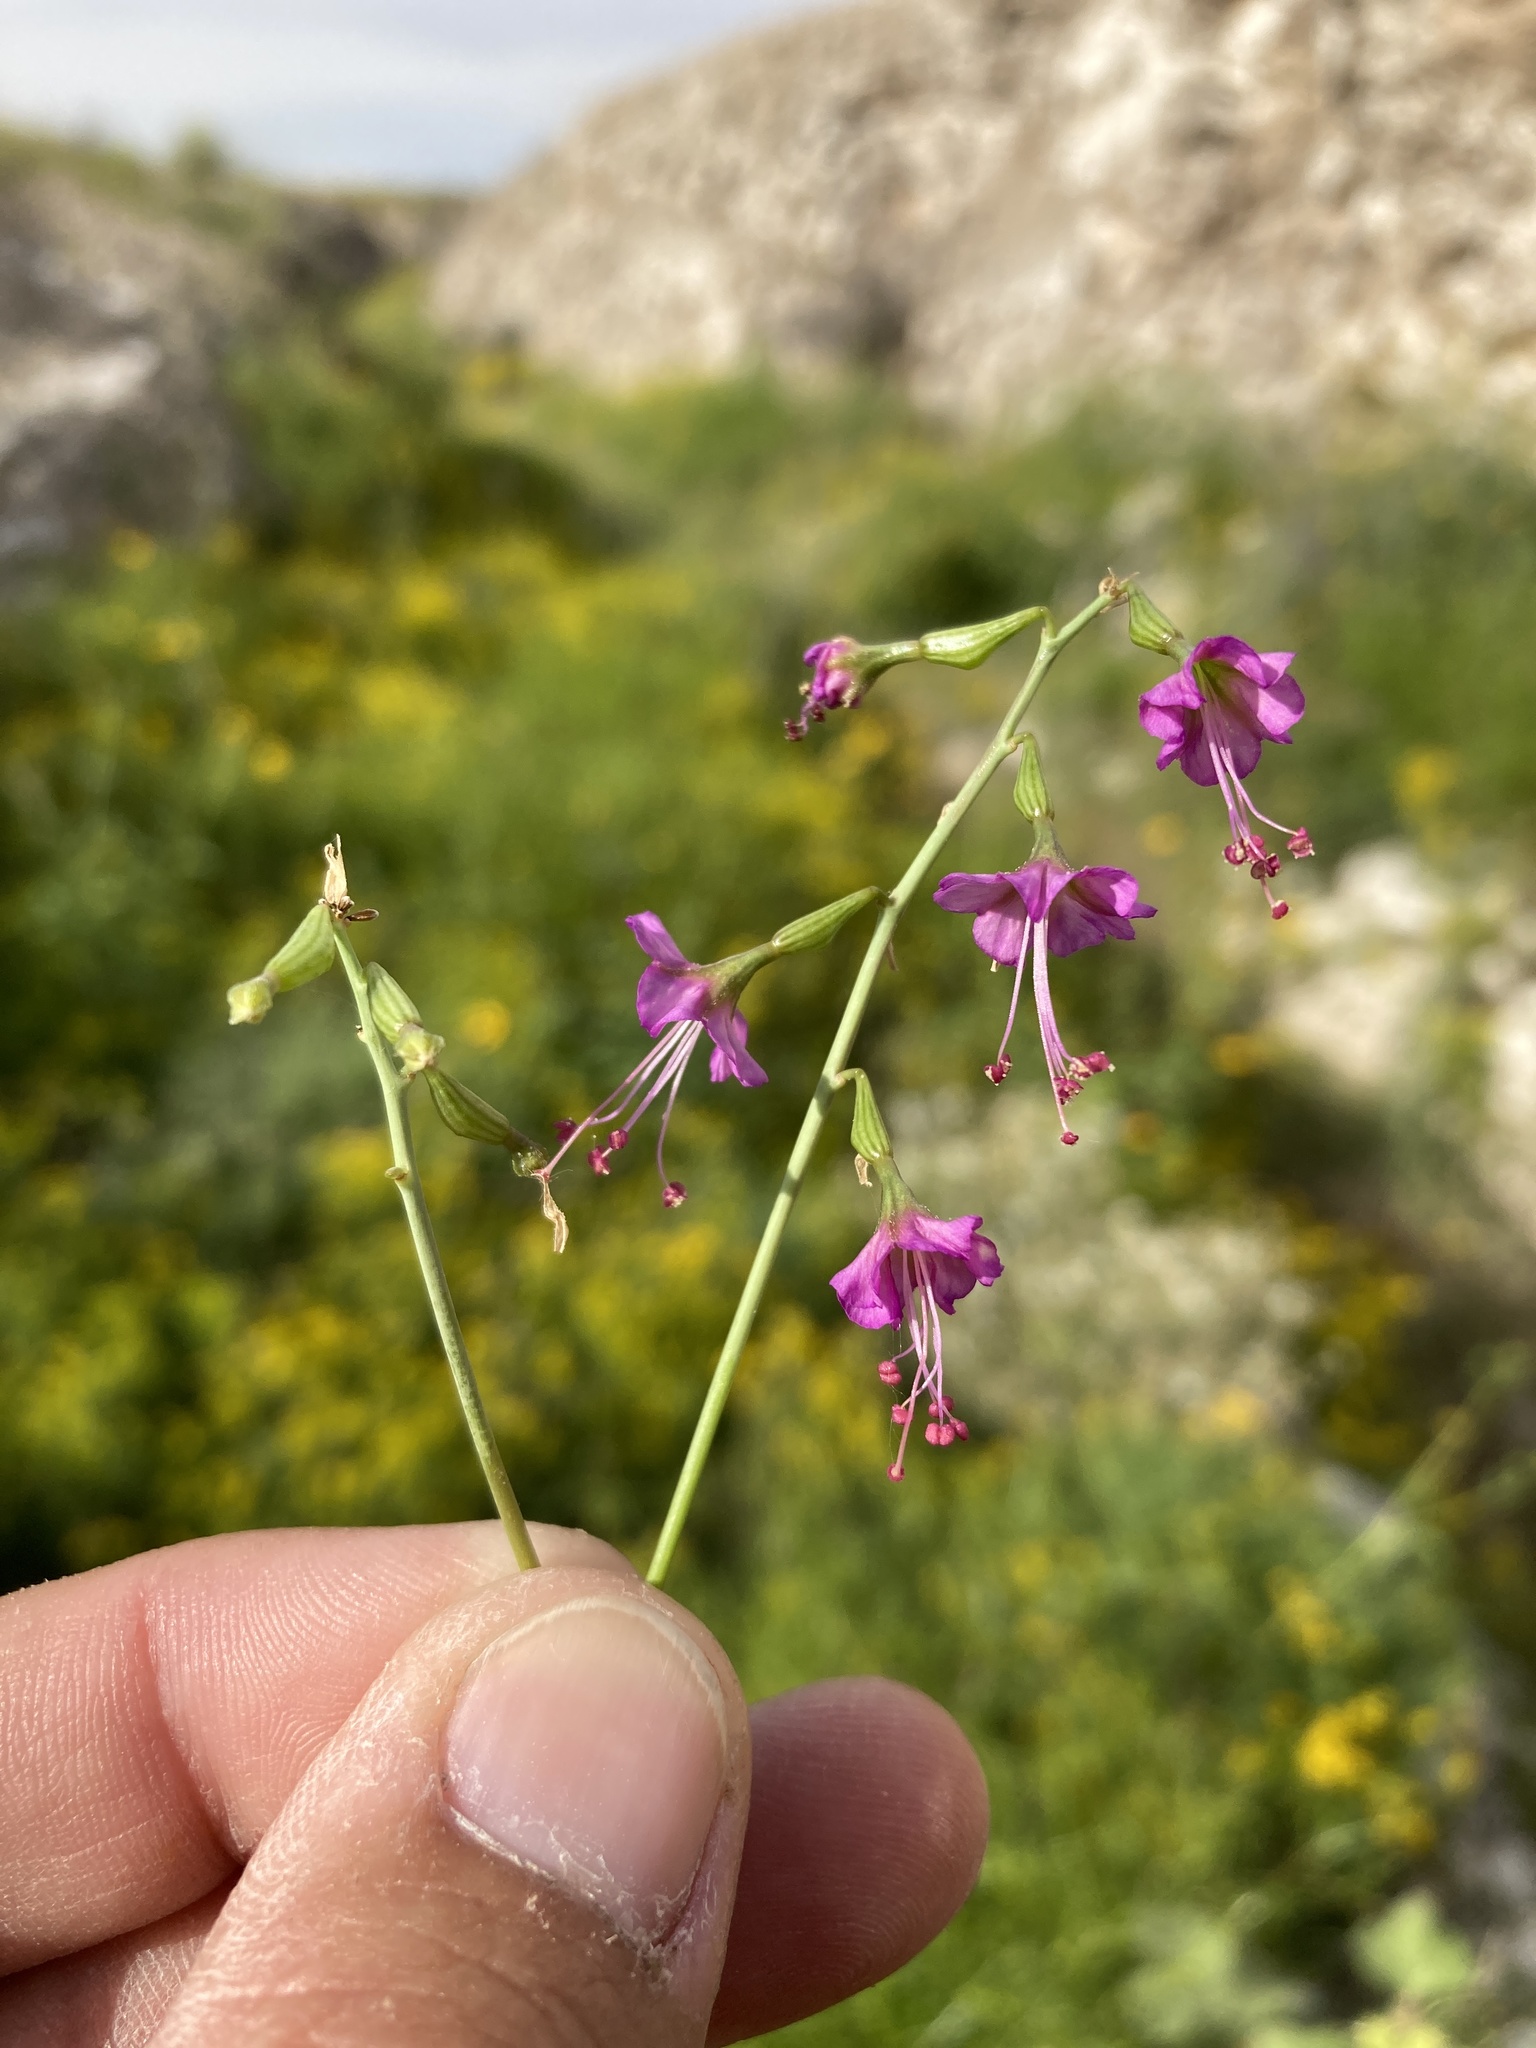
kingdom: Plantae
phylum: Tracheophyta
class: Magnoliopsida
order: Caryophyllales
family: Nyctaginaceae
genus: Cyphomeris
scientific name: Cyphomeris gypsophiloides
